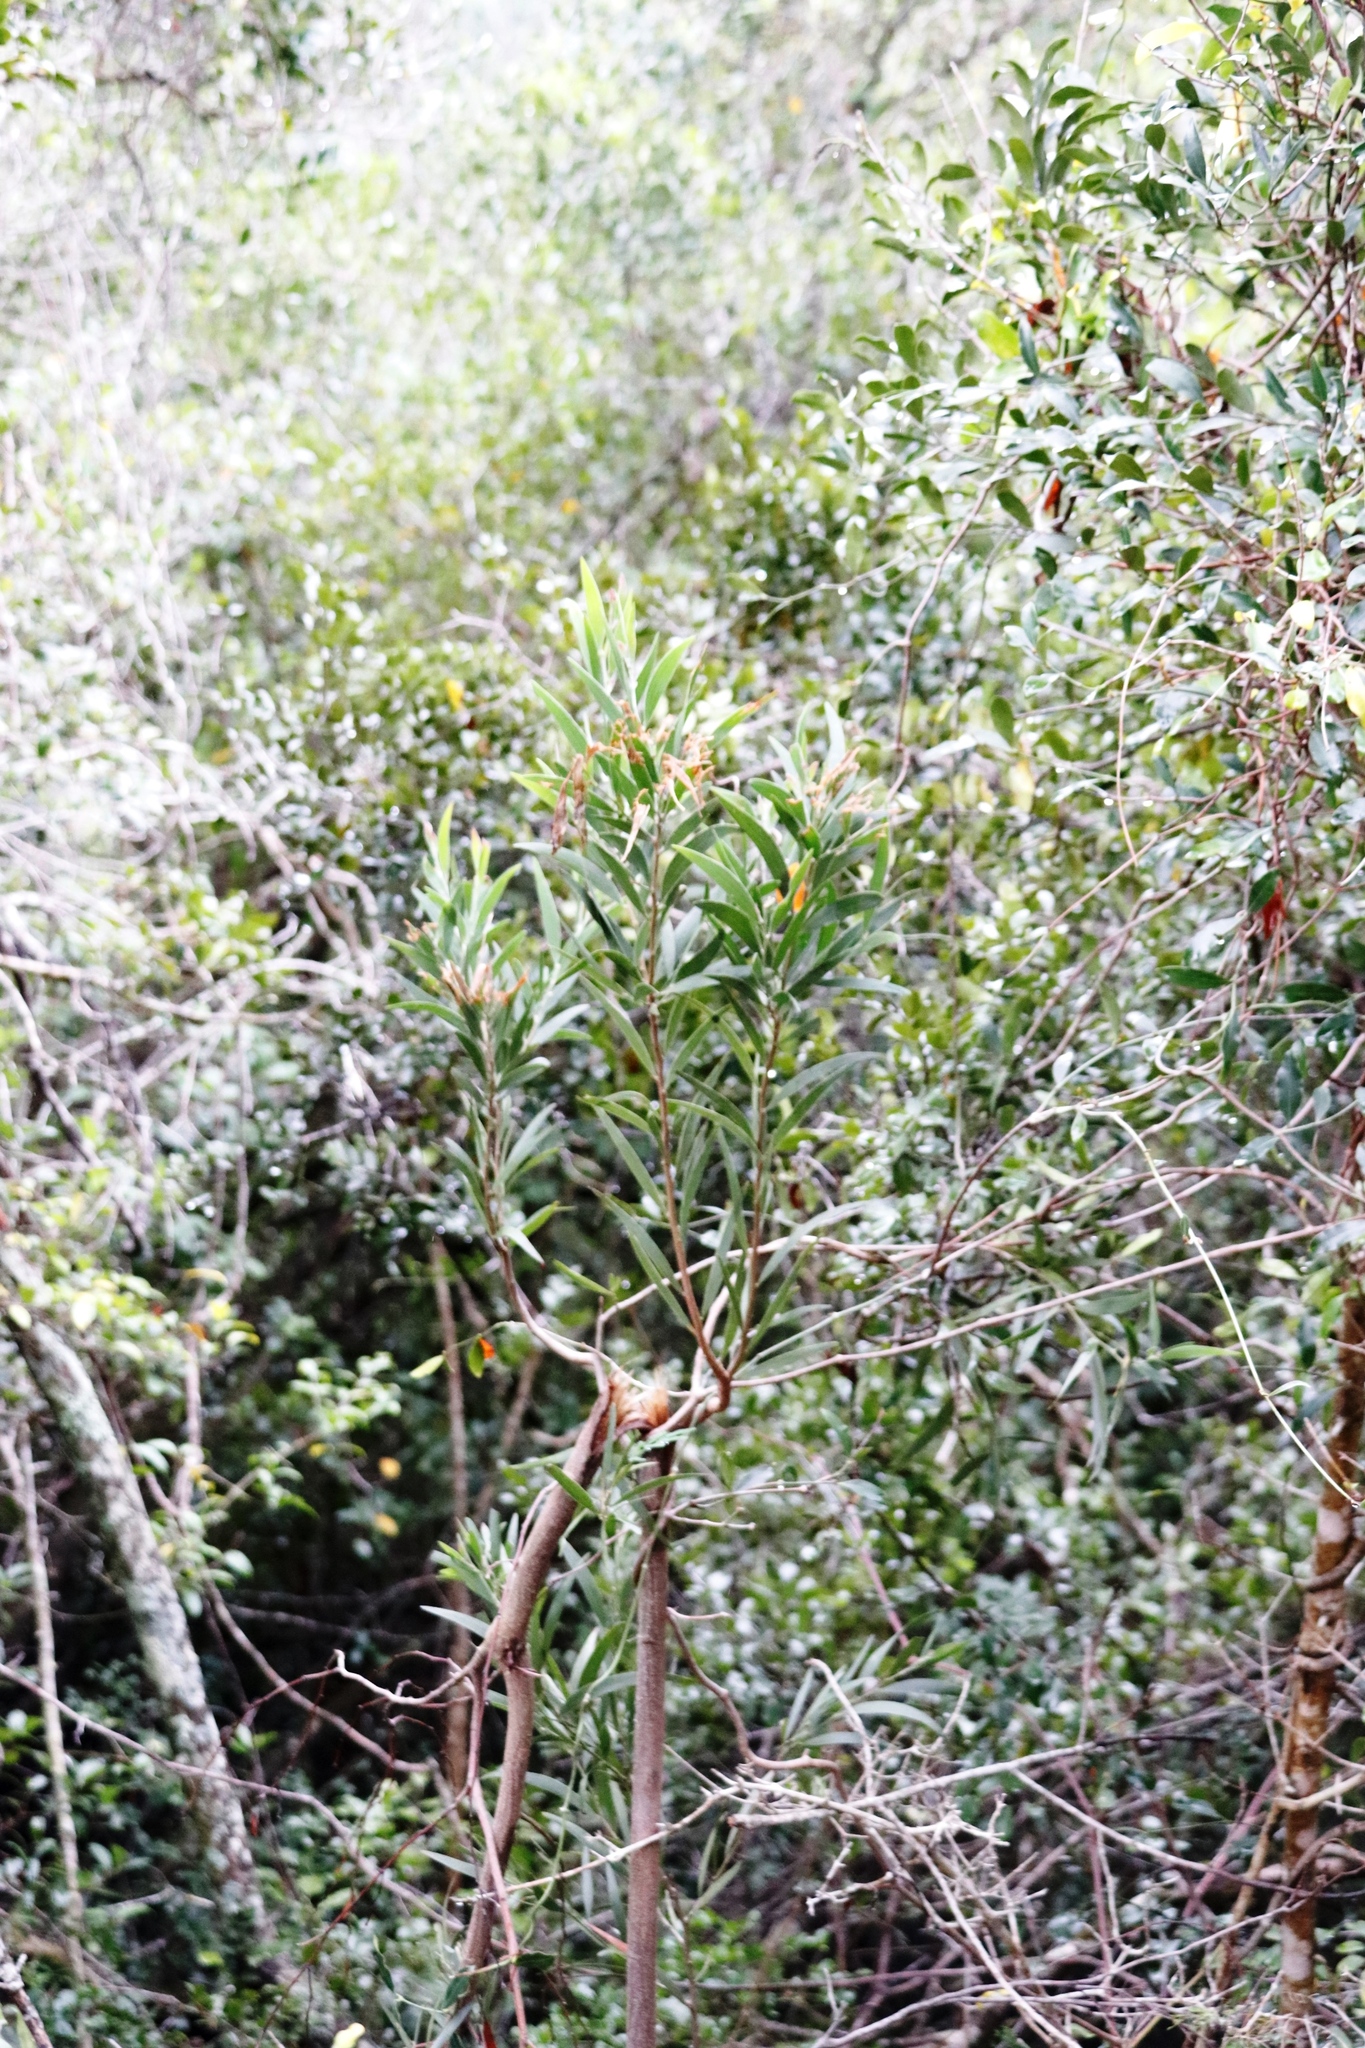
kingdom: Plantae
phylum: Tracheophyta
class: Magnoliopsida
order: Fabales
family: Fabaceae
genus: Acacia
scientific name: Acacia melanoxylon
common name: Blackwood
